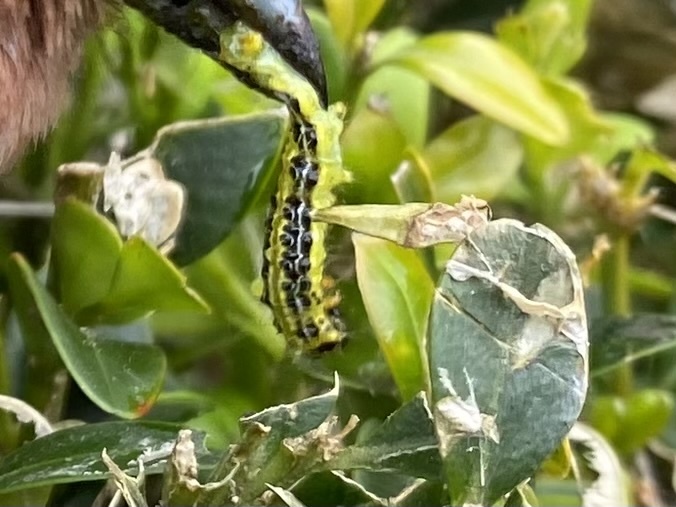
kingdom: Animalia
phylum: Arthropoda
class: Insecta
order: Lepidoptera
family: Crambidae
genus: Cydalima
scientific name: Cydalima perspectalis
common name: Box tree moth
